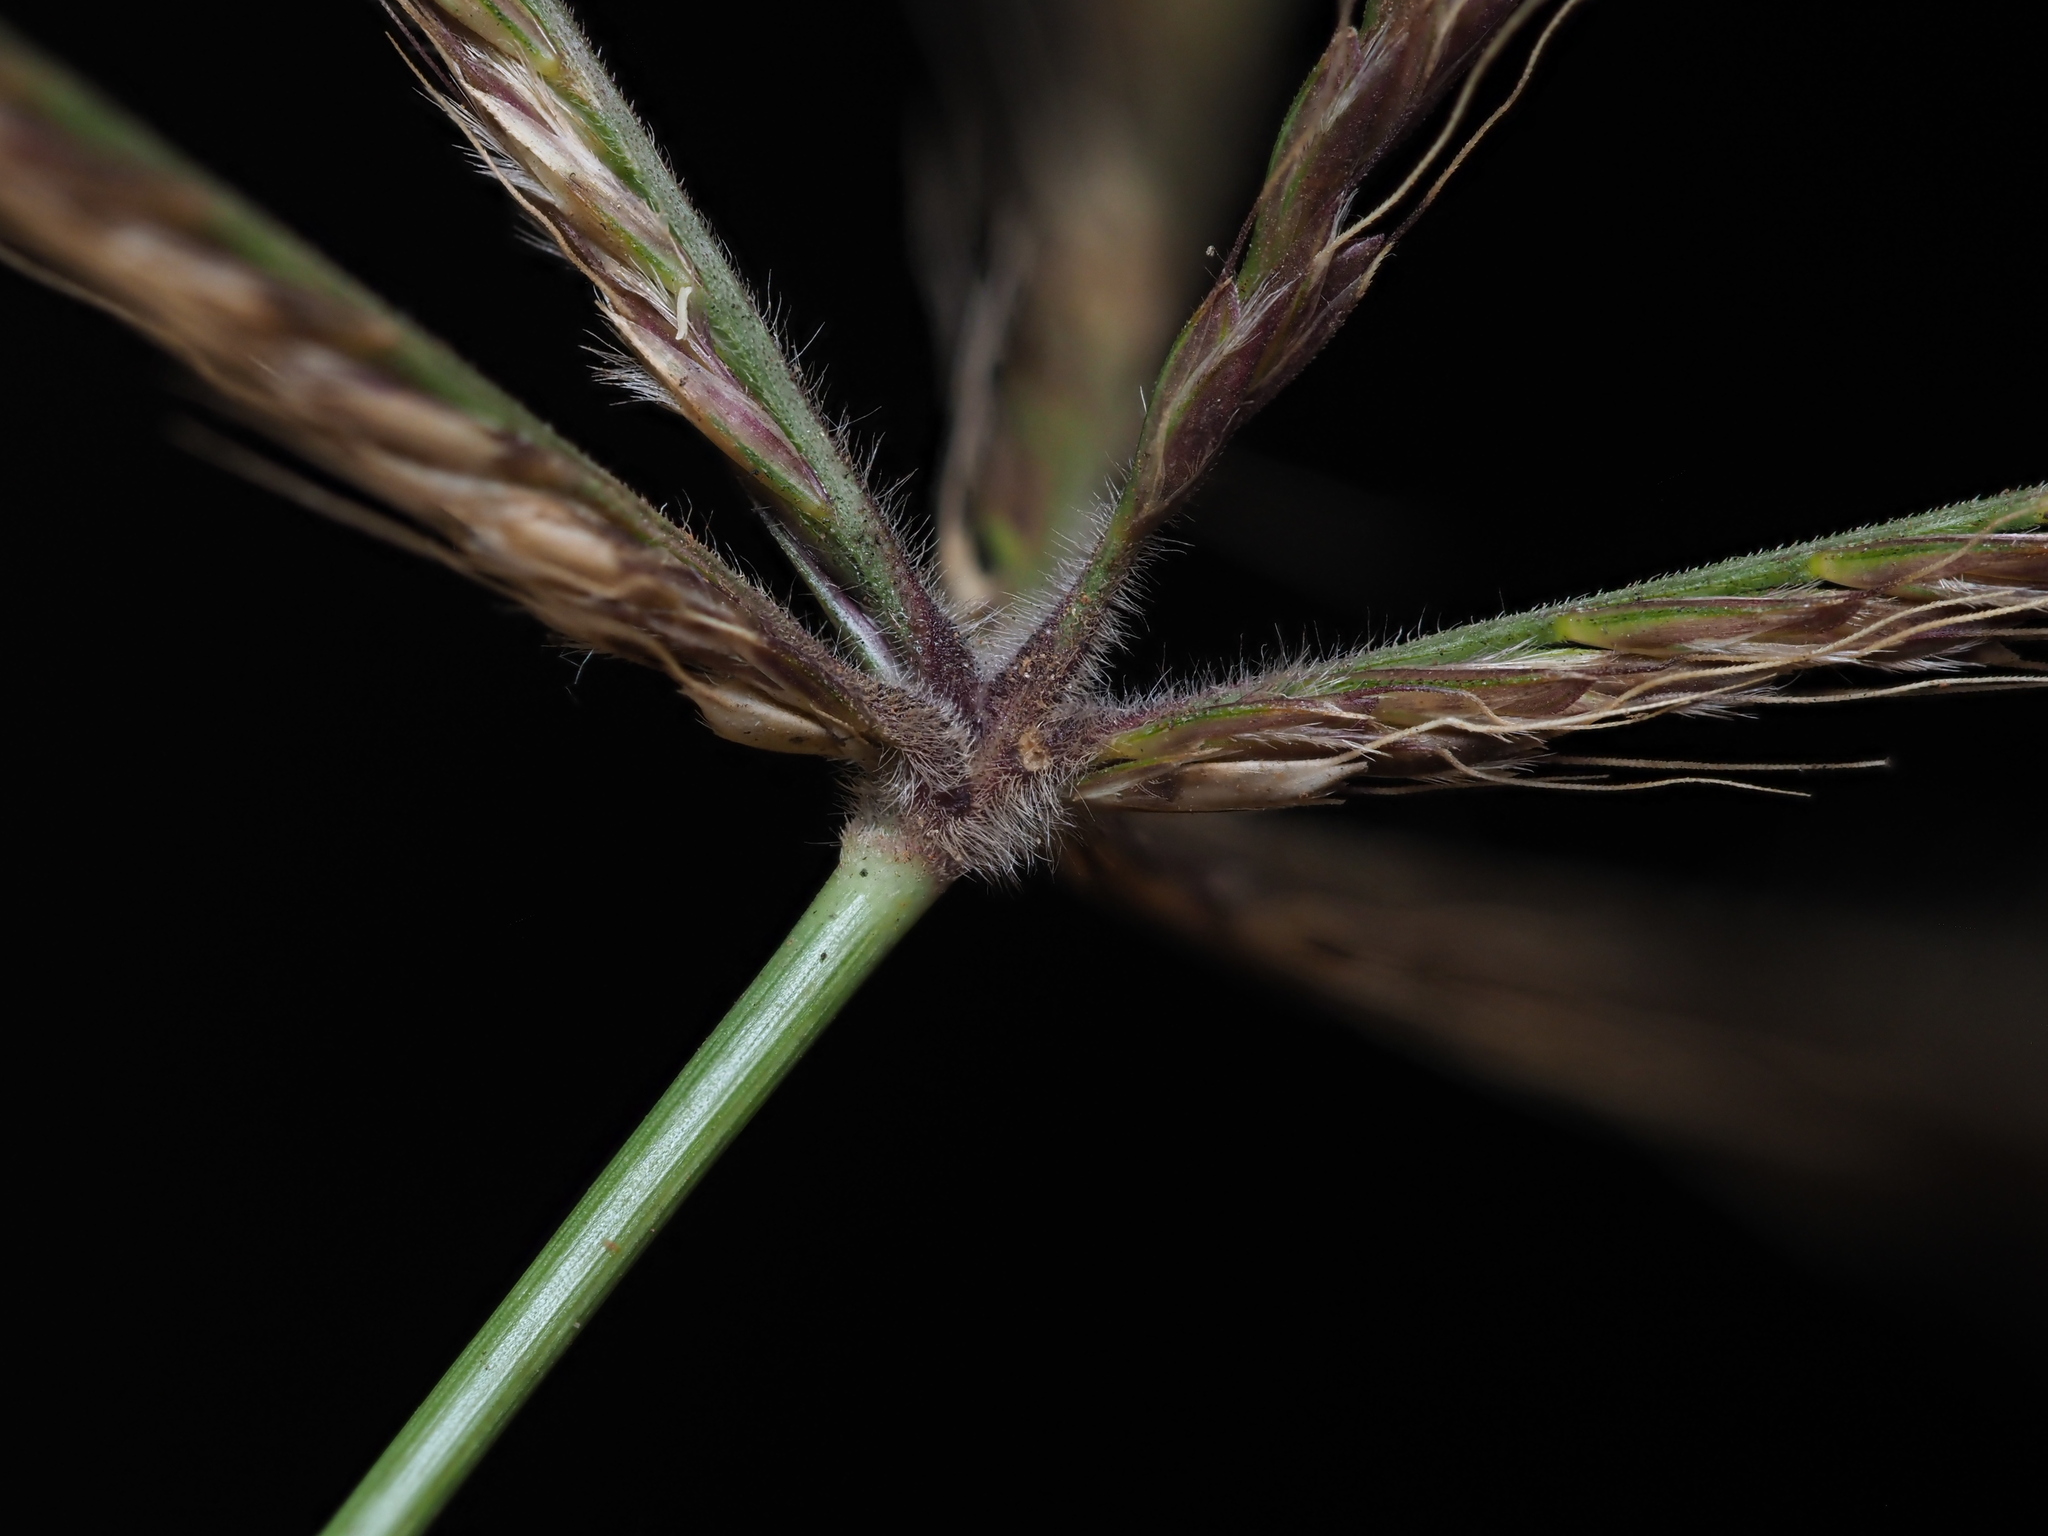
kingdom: Plantae
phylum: Tracheophyta
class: Liliopsida
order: Poales
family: Poaceae
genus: Chloris
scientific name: Chloris
